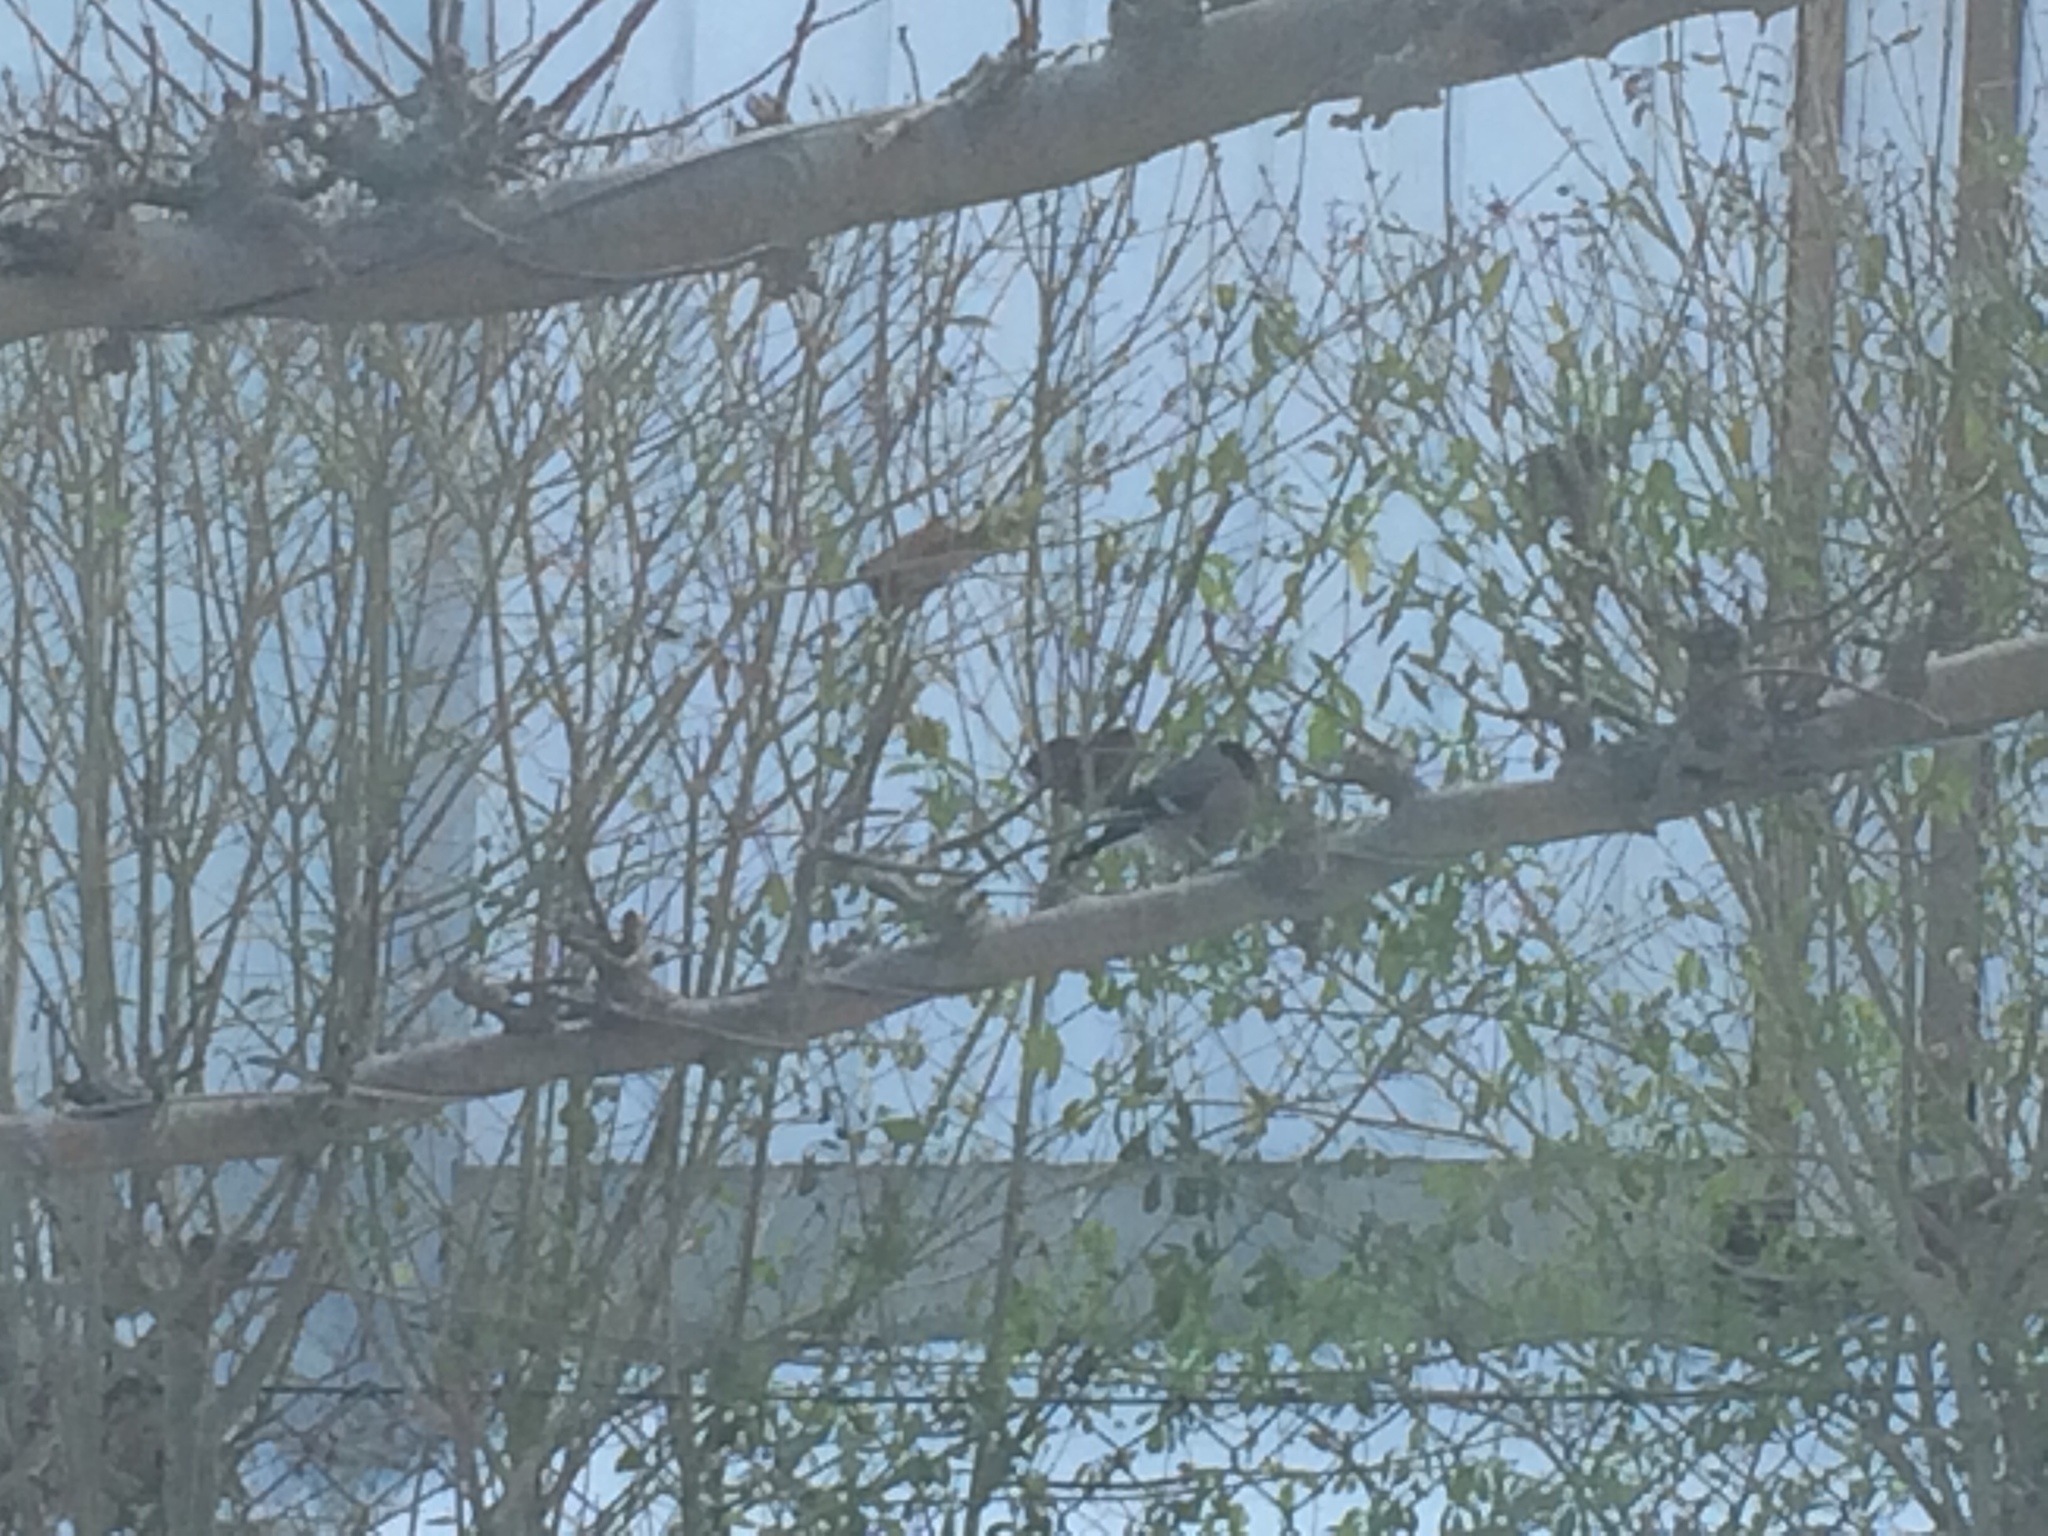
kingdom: Animalia
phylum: Chordata
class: Aves
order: Passeriformes
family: Fringillidae
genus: Pyrrhula
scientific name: Pyrrhula pyrrhula
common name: Eurasian bullfinch
